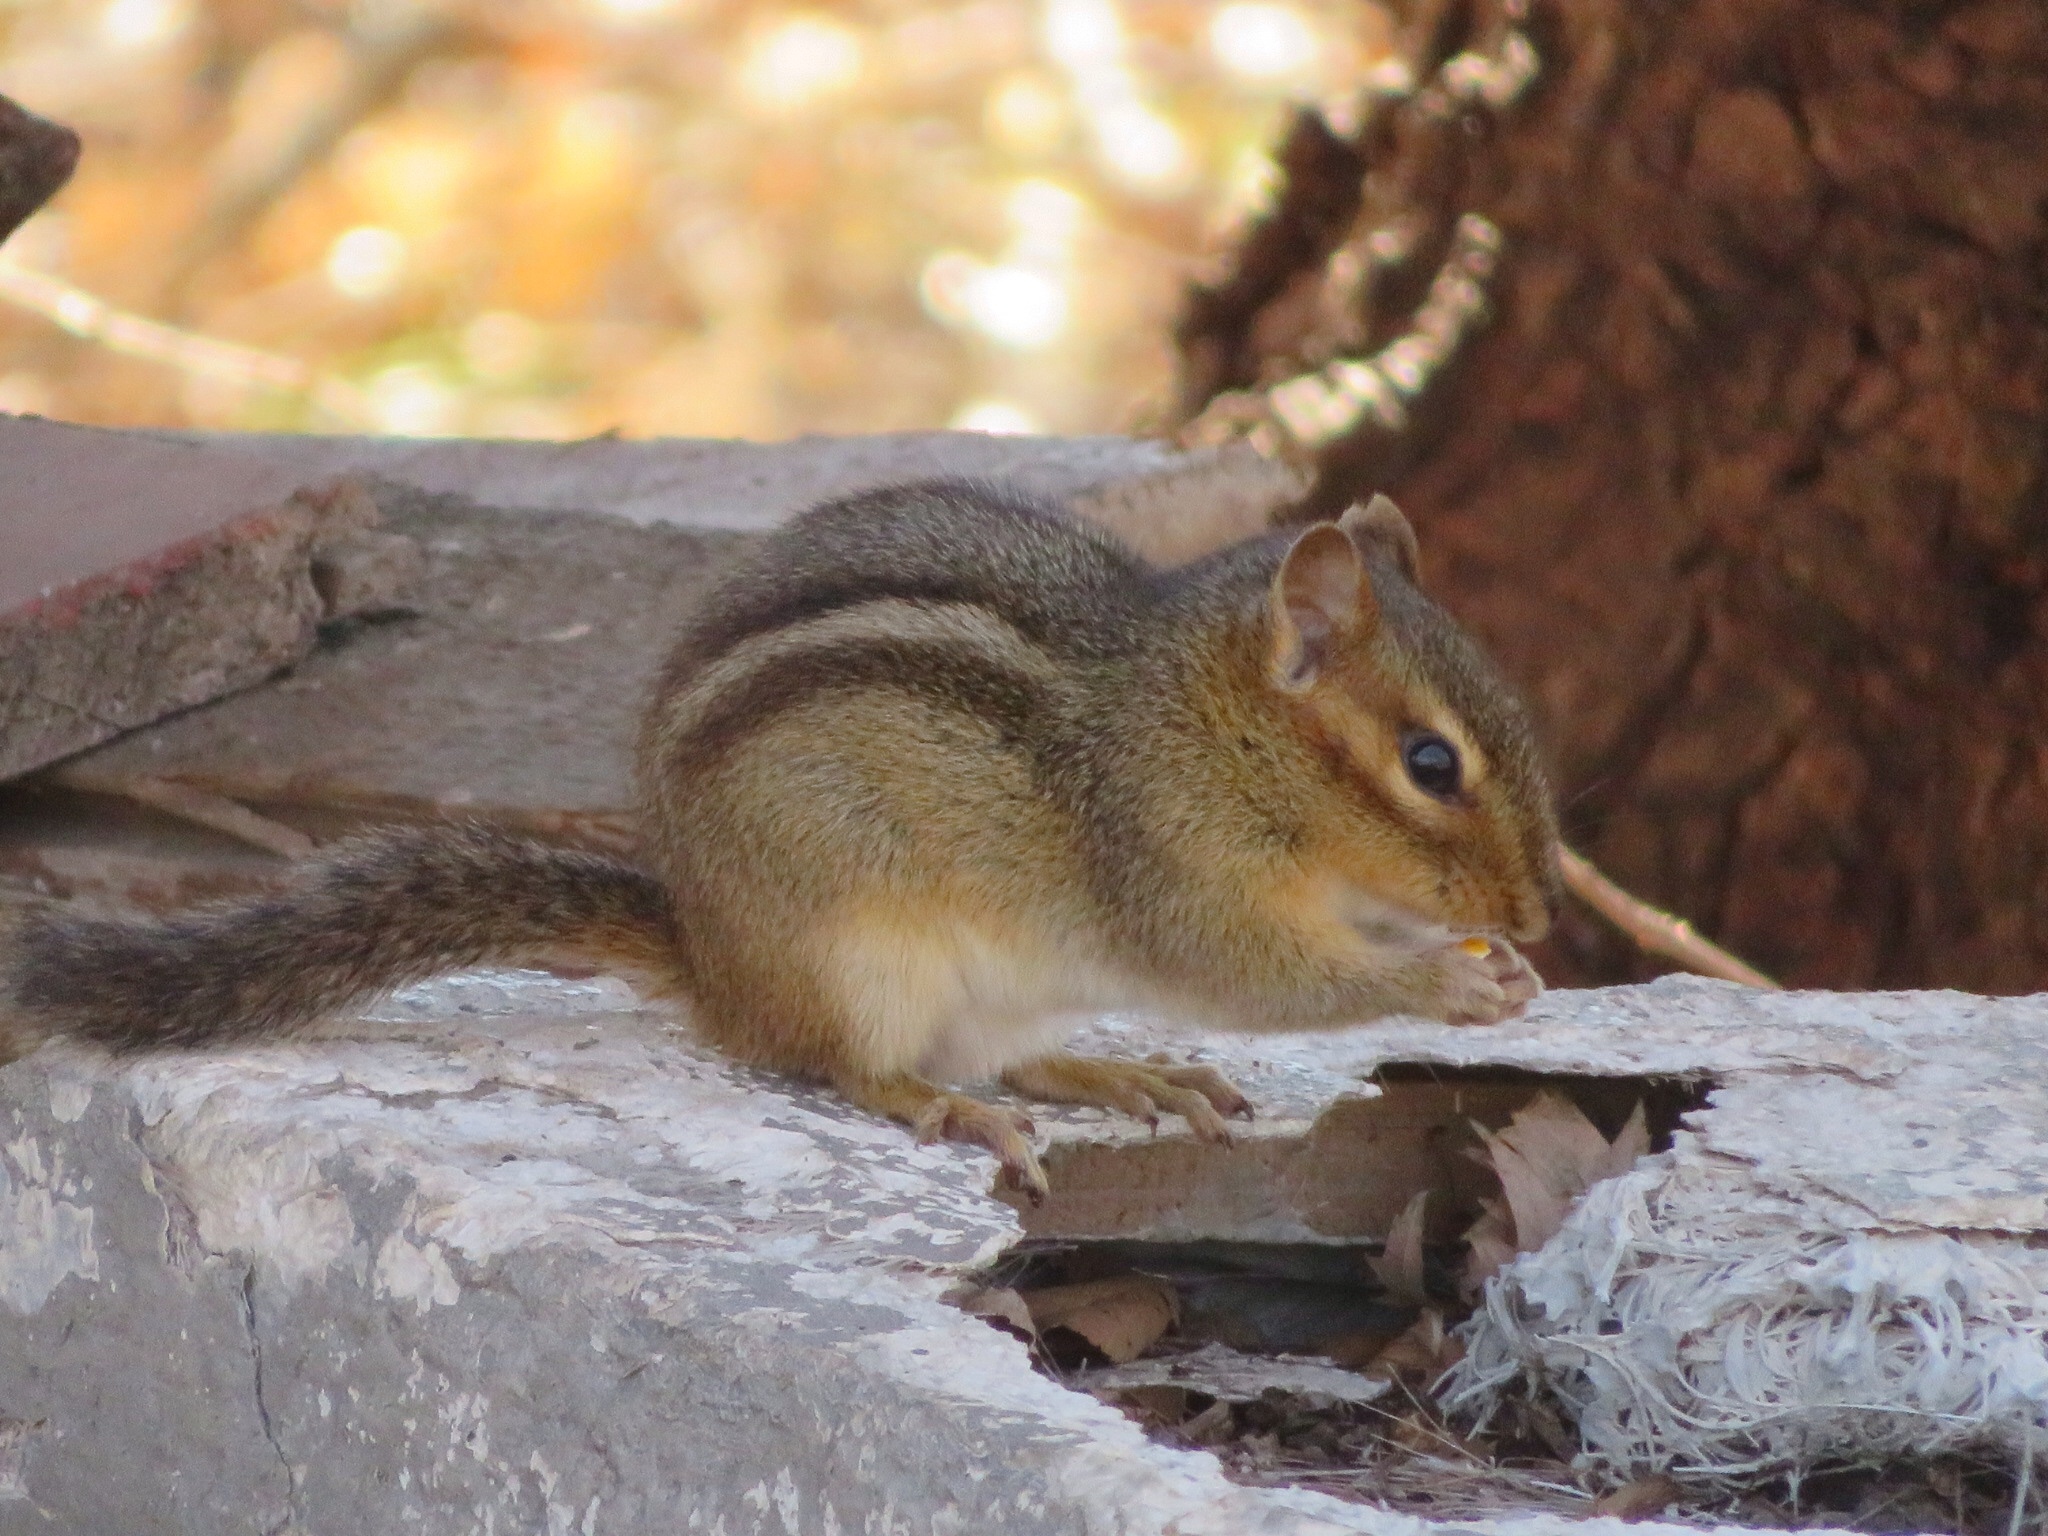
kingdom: Animalia
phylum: Chordata
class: Mammalia
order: Rodentia
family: Sciuridae
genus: Tamias
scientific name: Tamias striatus
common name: Eastern chipmunk
